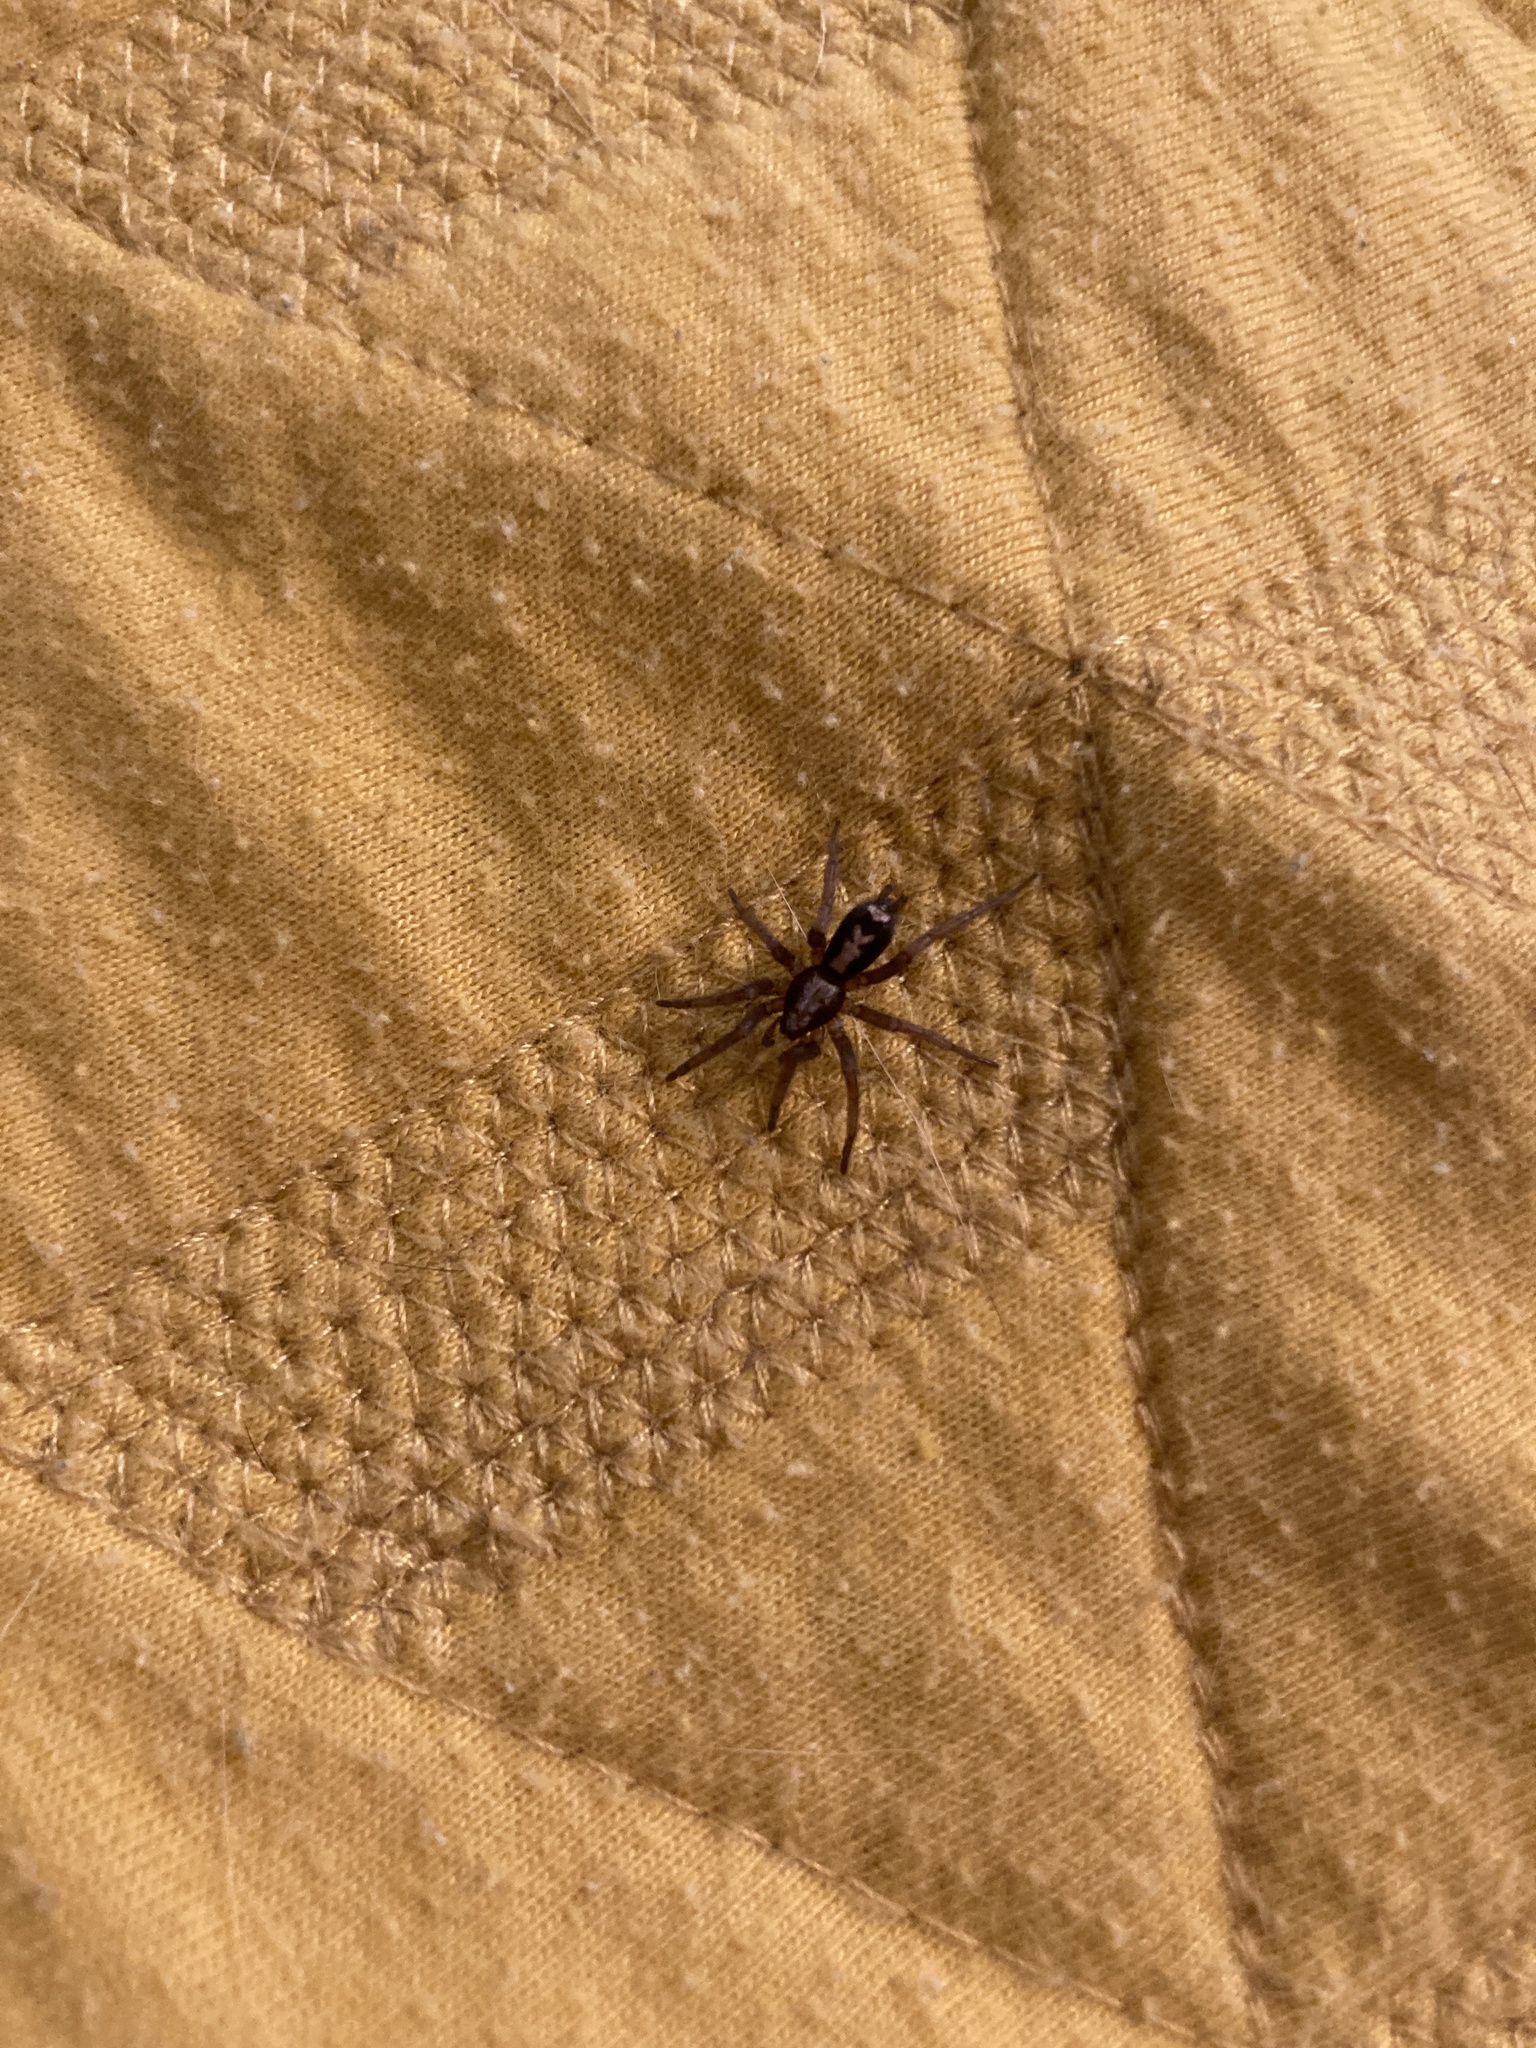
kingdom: Animalia
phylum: Arthropoda
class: Arachnida
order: Araneae
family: Gnaphosidae
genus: Herpyllus
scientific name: Herpyllus ecclesiasticus
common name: Eastern parson spider
